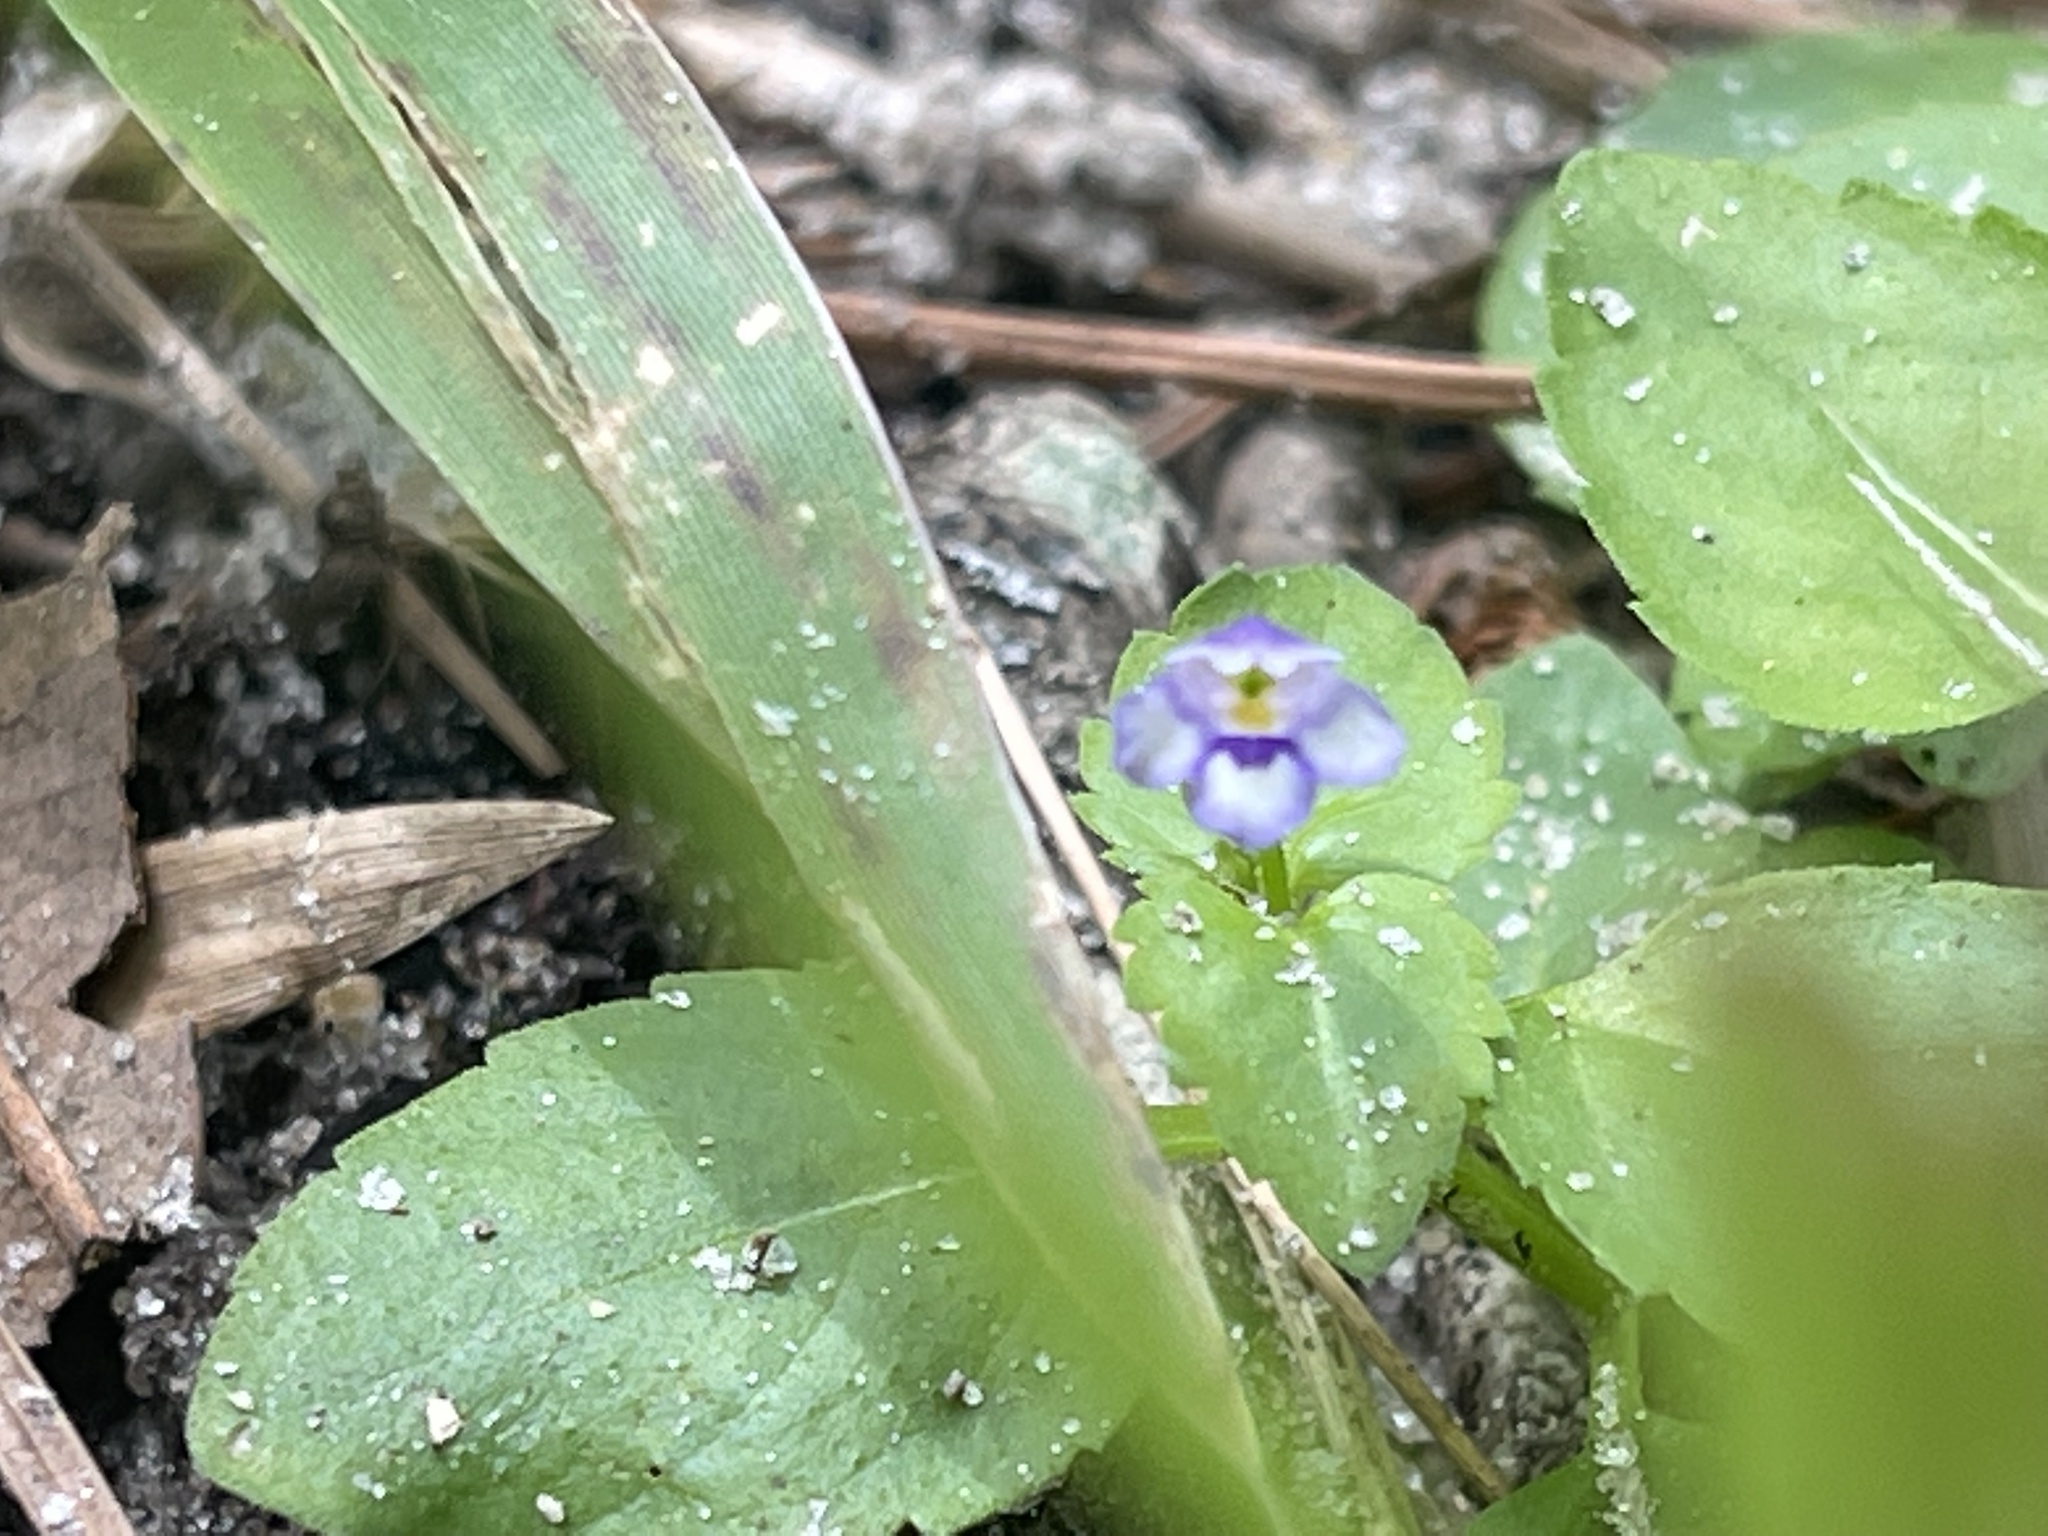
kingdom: Plantae
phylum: Tracheophyta
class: Magnoliopsida
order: Lamiales
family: Linderniaceae
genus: Torenia
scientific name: Torenia crustacea
